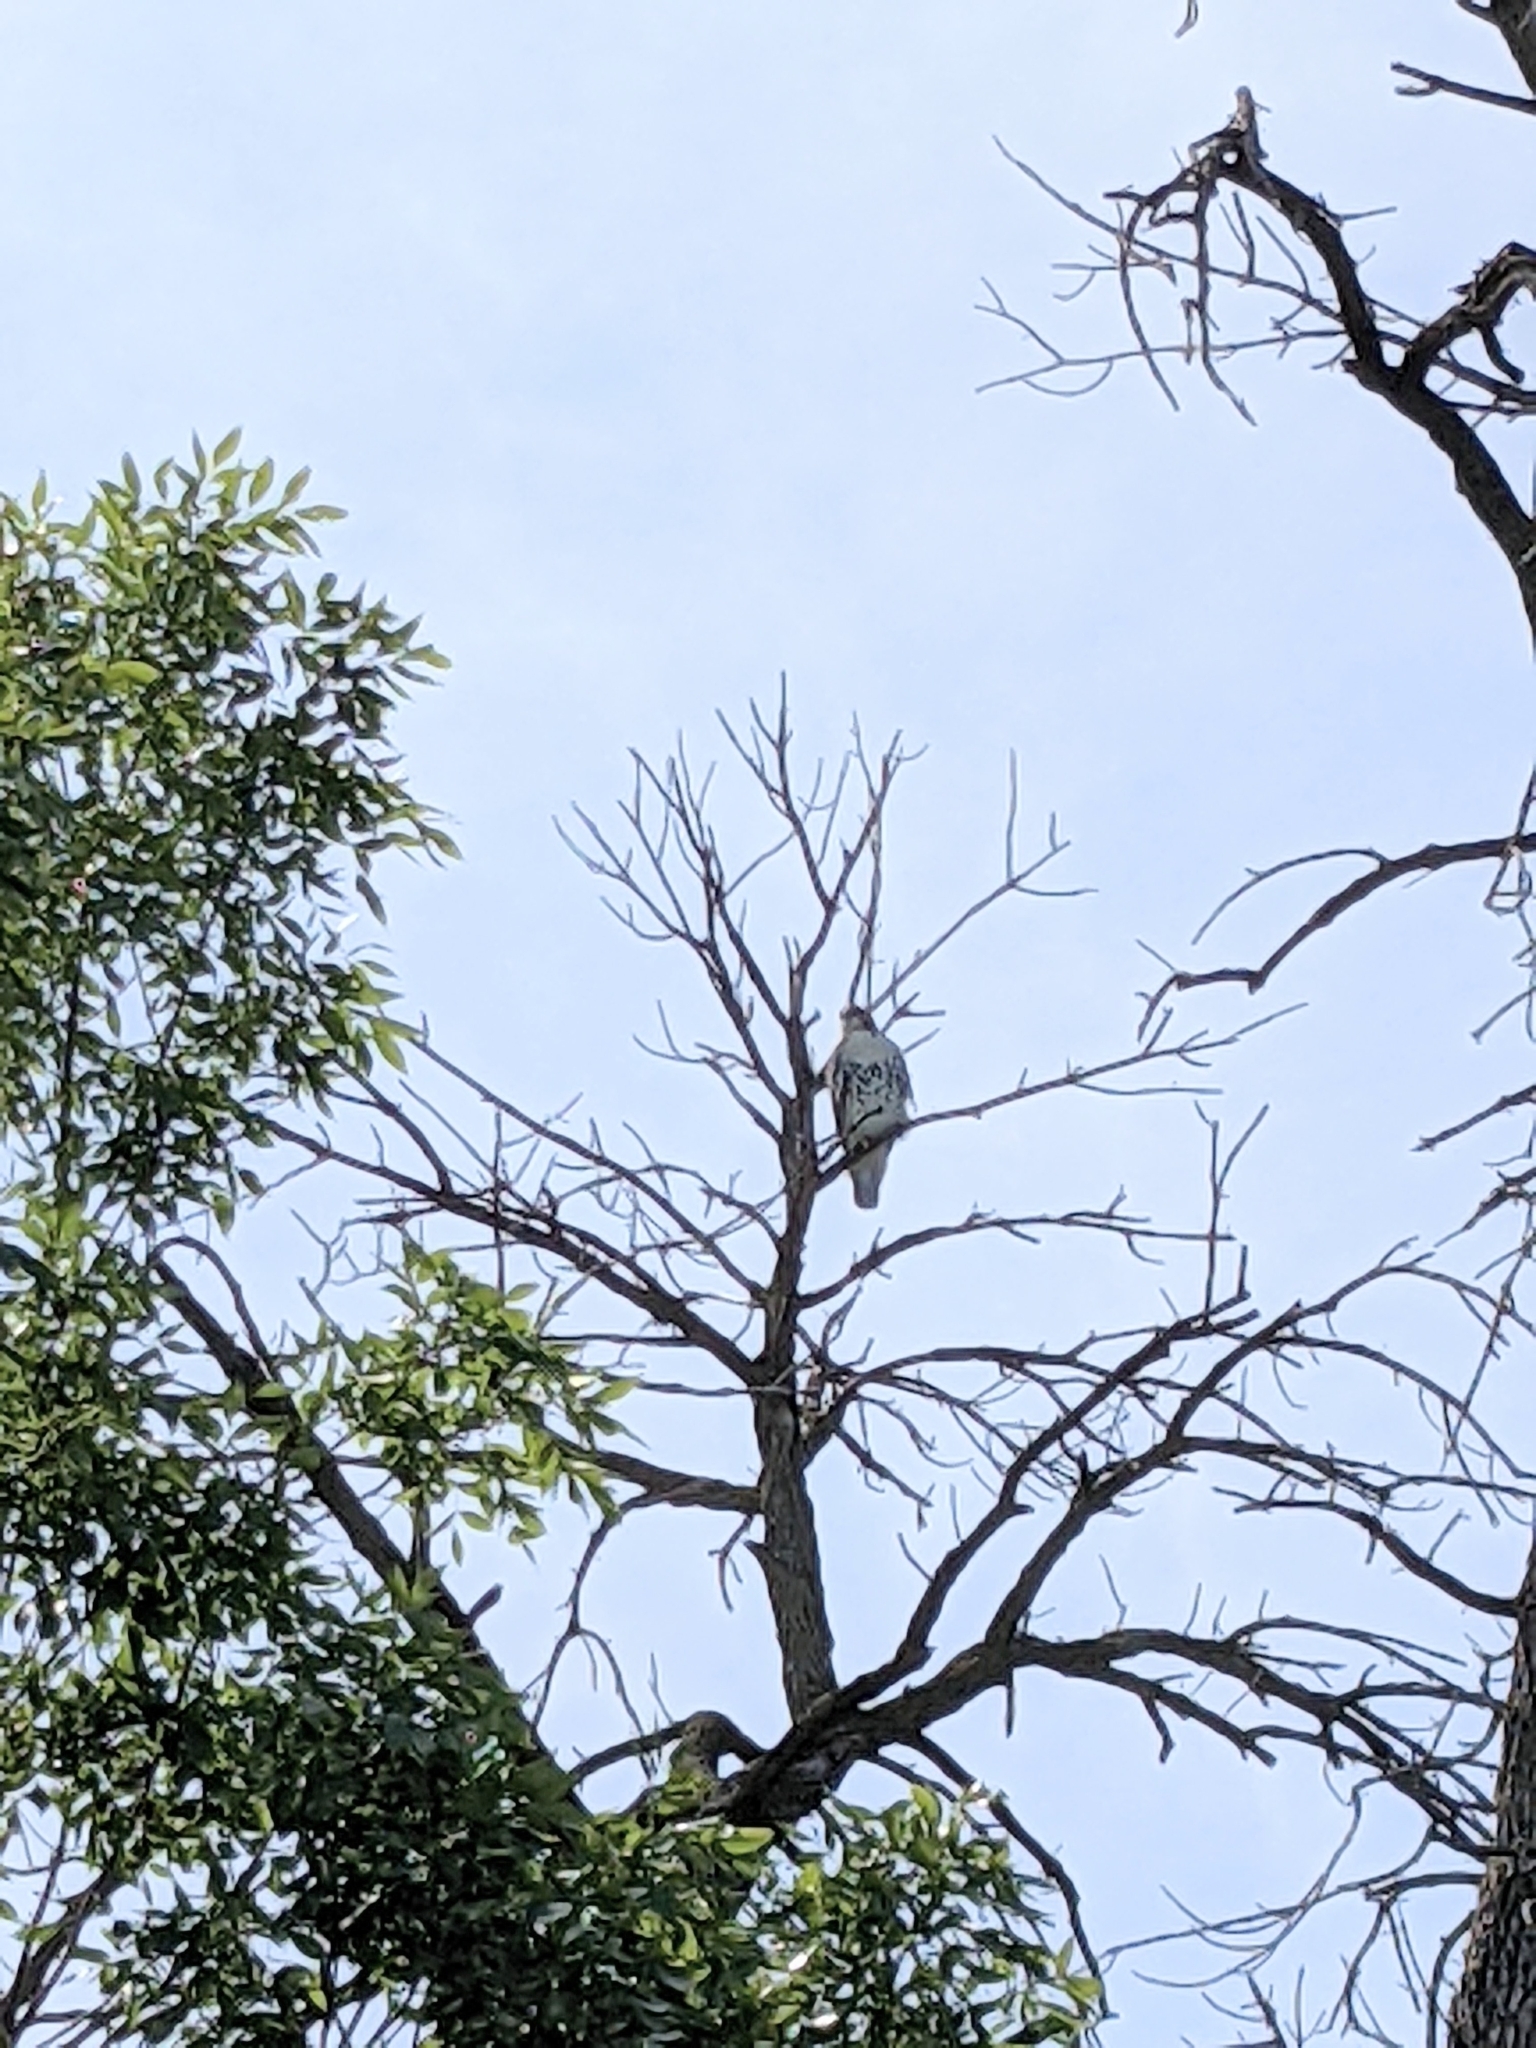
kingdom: Animalia
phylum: Chordata
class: Aves
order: Accipitriformes
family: Accipitridae
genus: Buteo
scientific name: Buteo jamaicensis
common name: Red-tailed hawk
